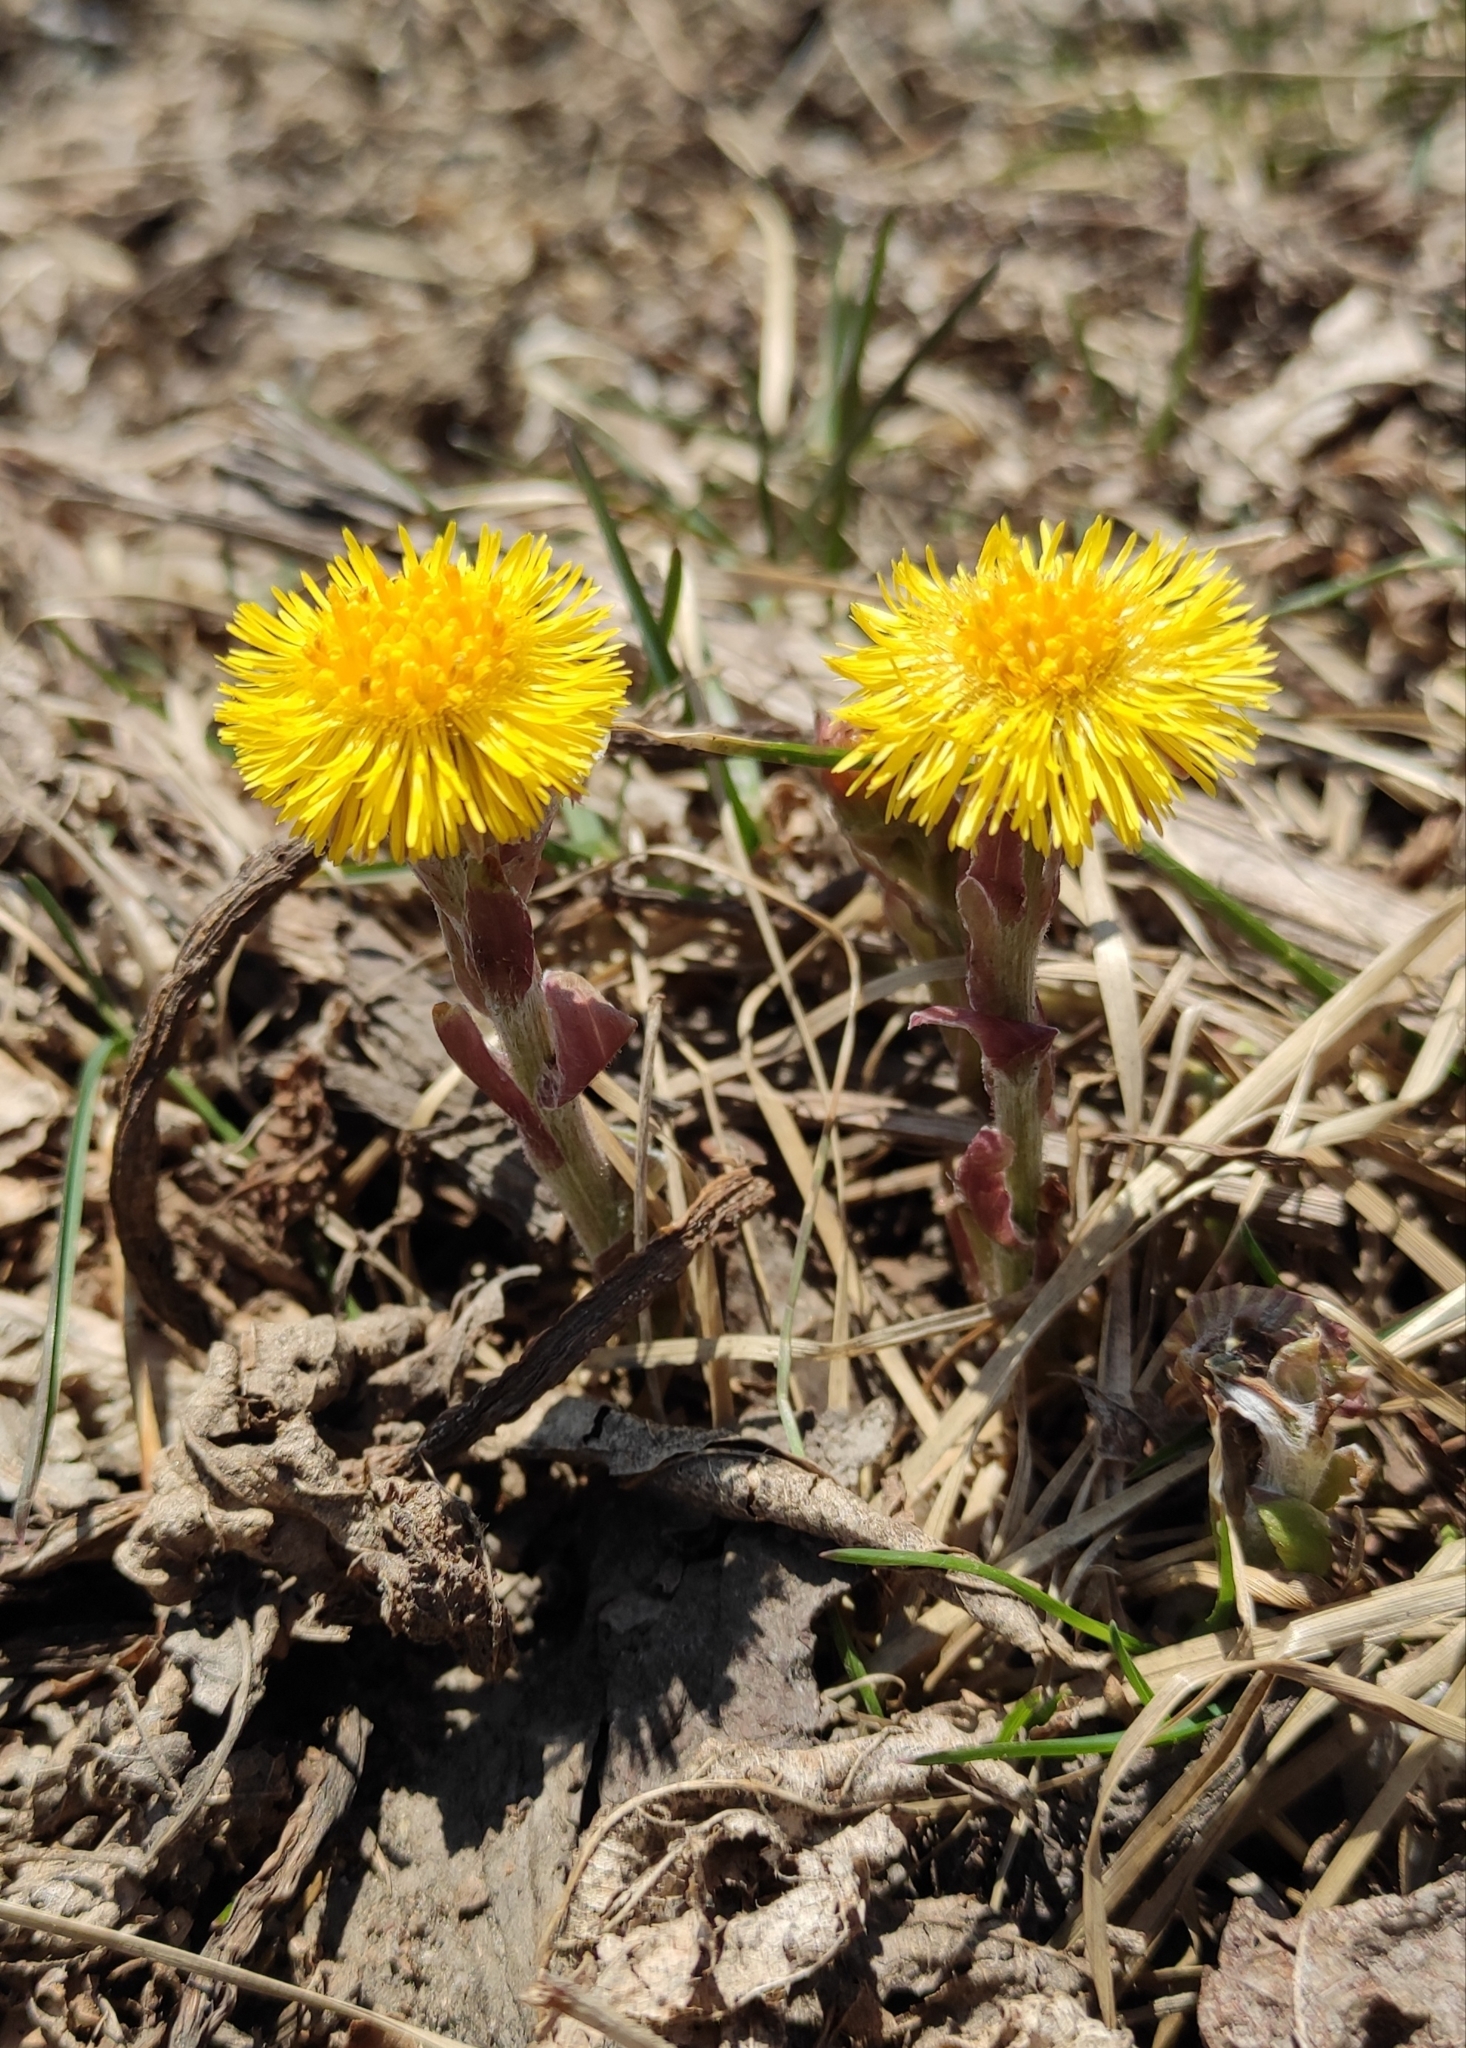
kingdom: Plantae
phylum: Tracheophyta
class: Magnoliopsida
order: Asterales
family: Asteraceae
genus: Tussilago
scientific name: Tussilago farfara
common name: Coltsfoot
